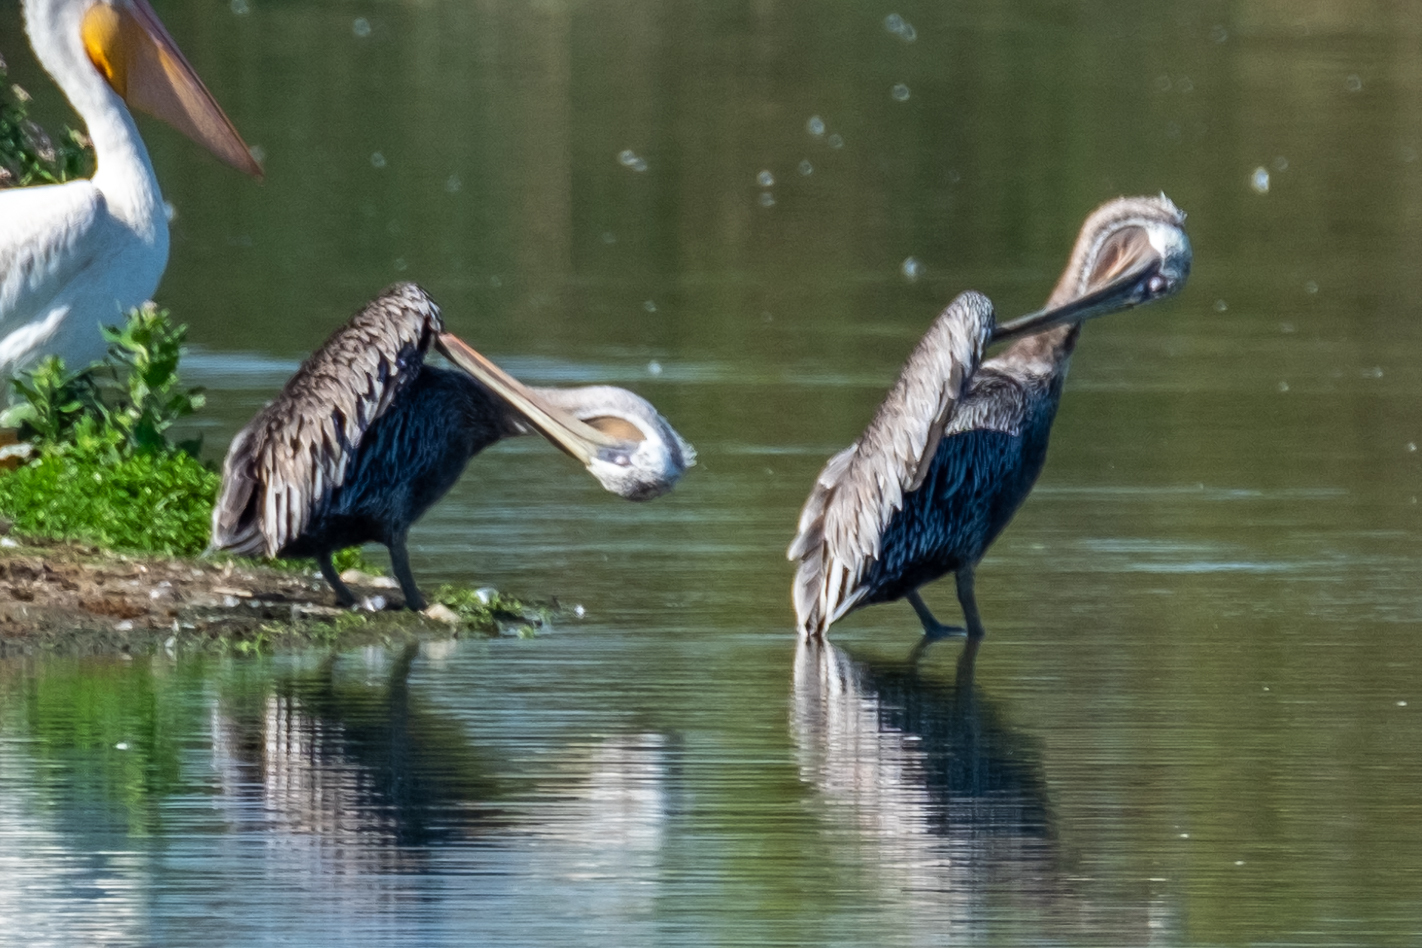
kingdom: Animalia
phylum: Chordata
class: Aves
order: Pelecaniformes
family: Pelecanidae
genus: Pelecanus
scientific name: Pelecanus occidentalis
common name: Brown pelican
